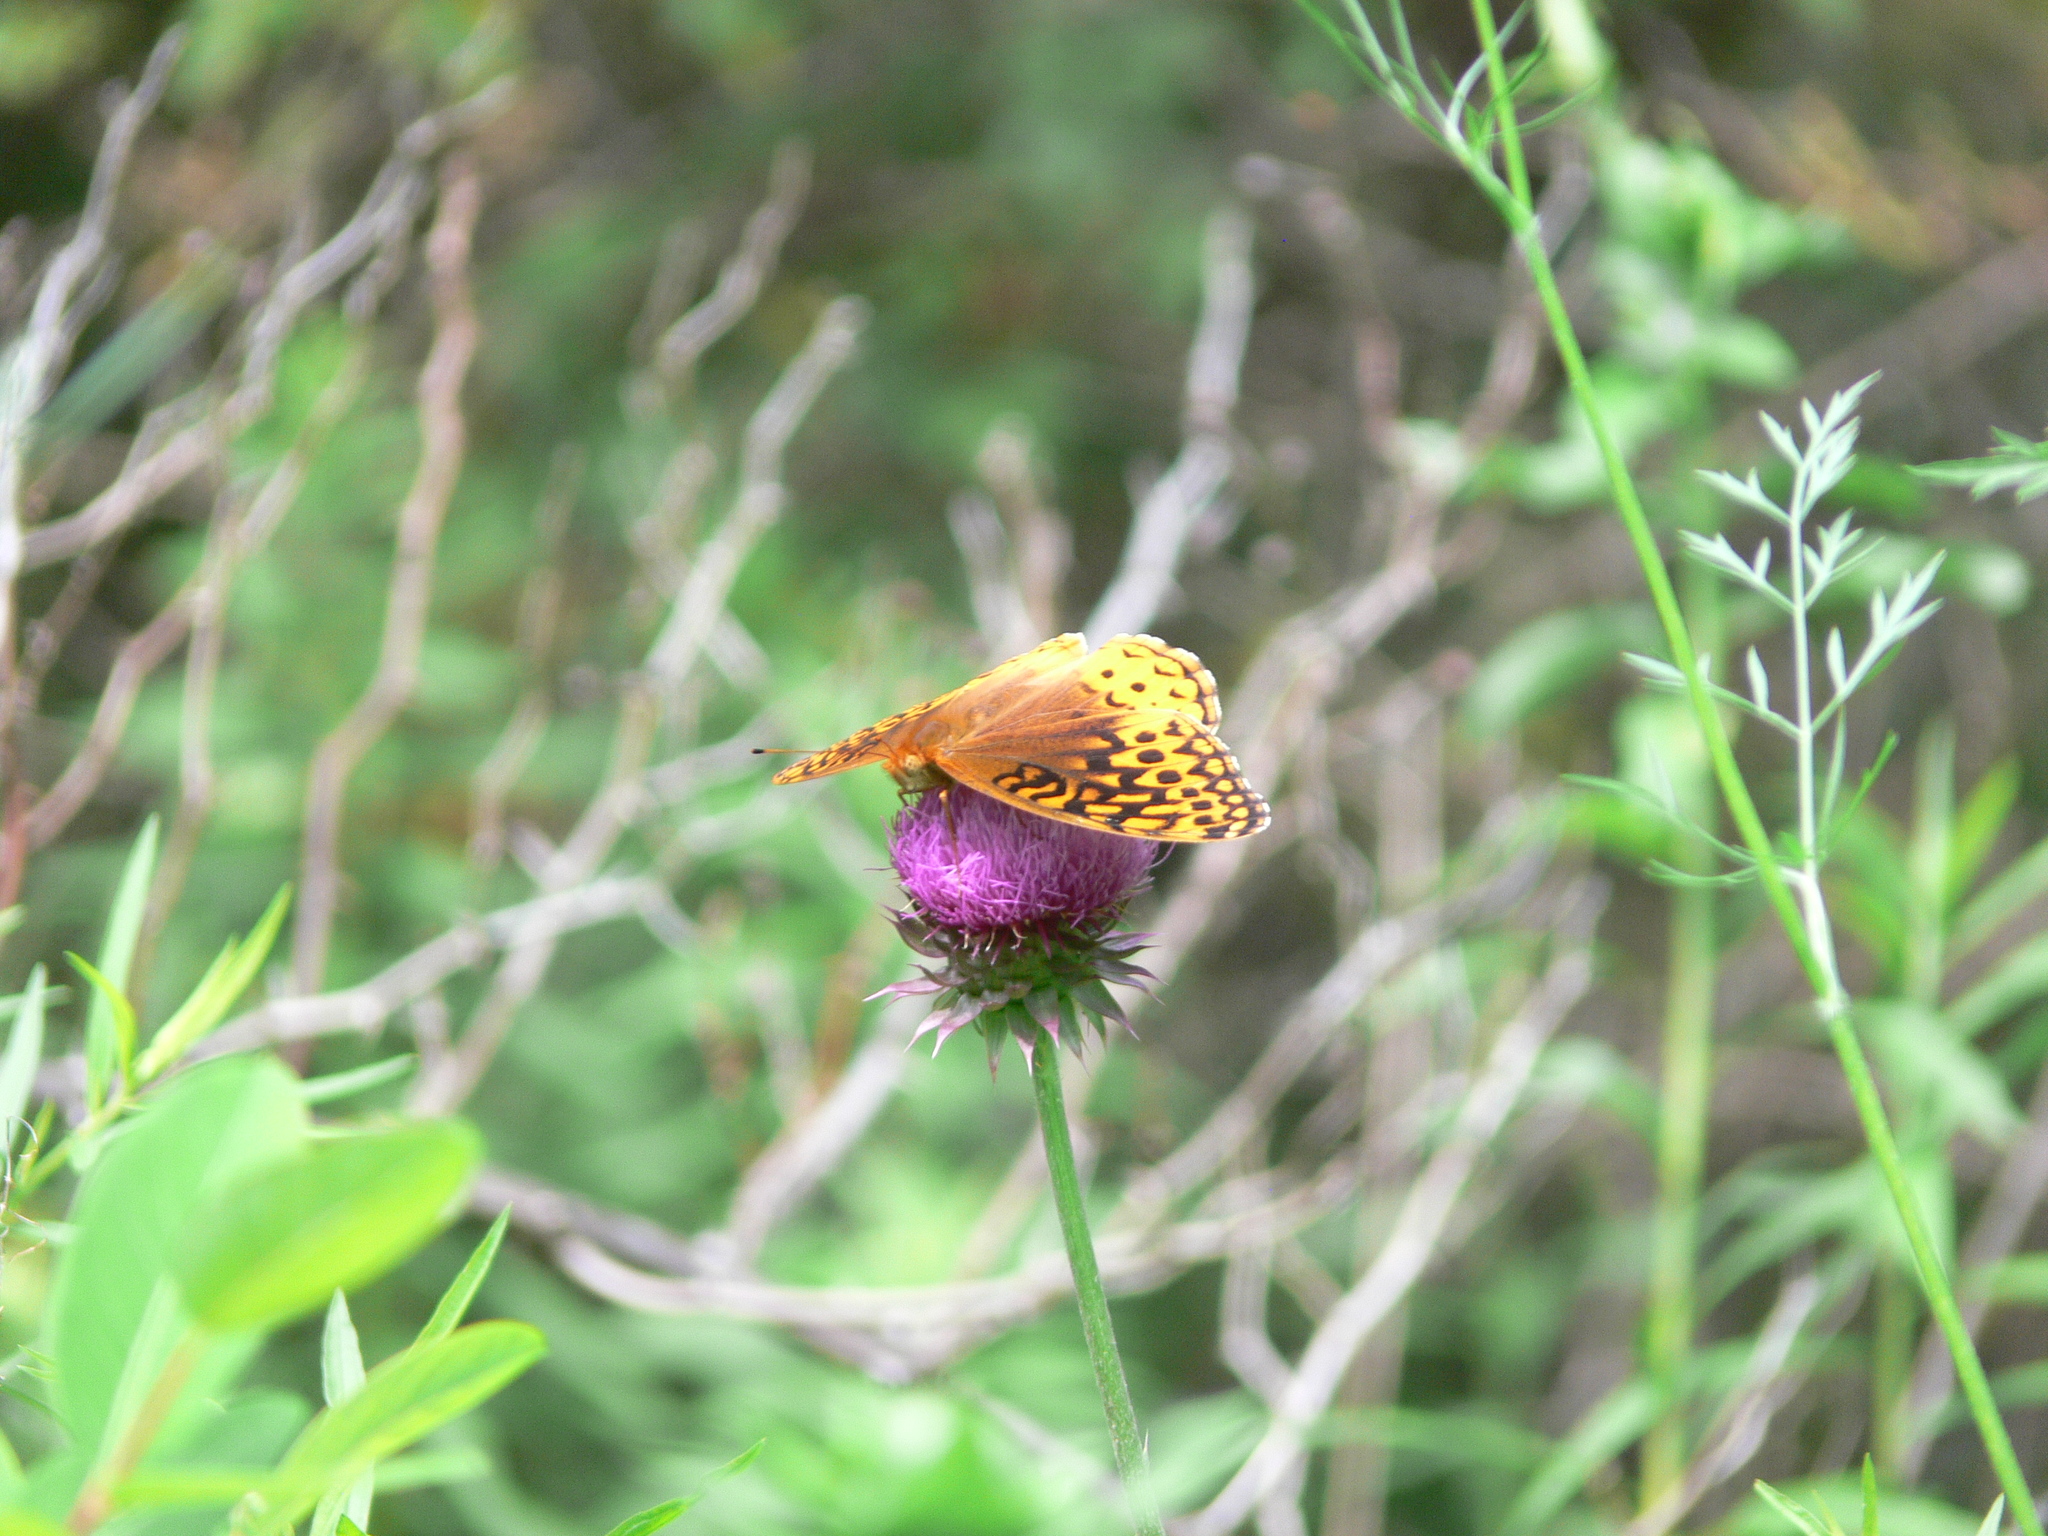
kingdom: Animalia
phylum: Arthropoda
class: Insecta
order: Lepidoptera
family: Nymphalidae
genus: Speyeria
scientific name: Speyeria cybele
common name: Great spangled fritillary
